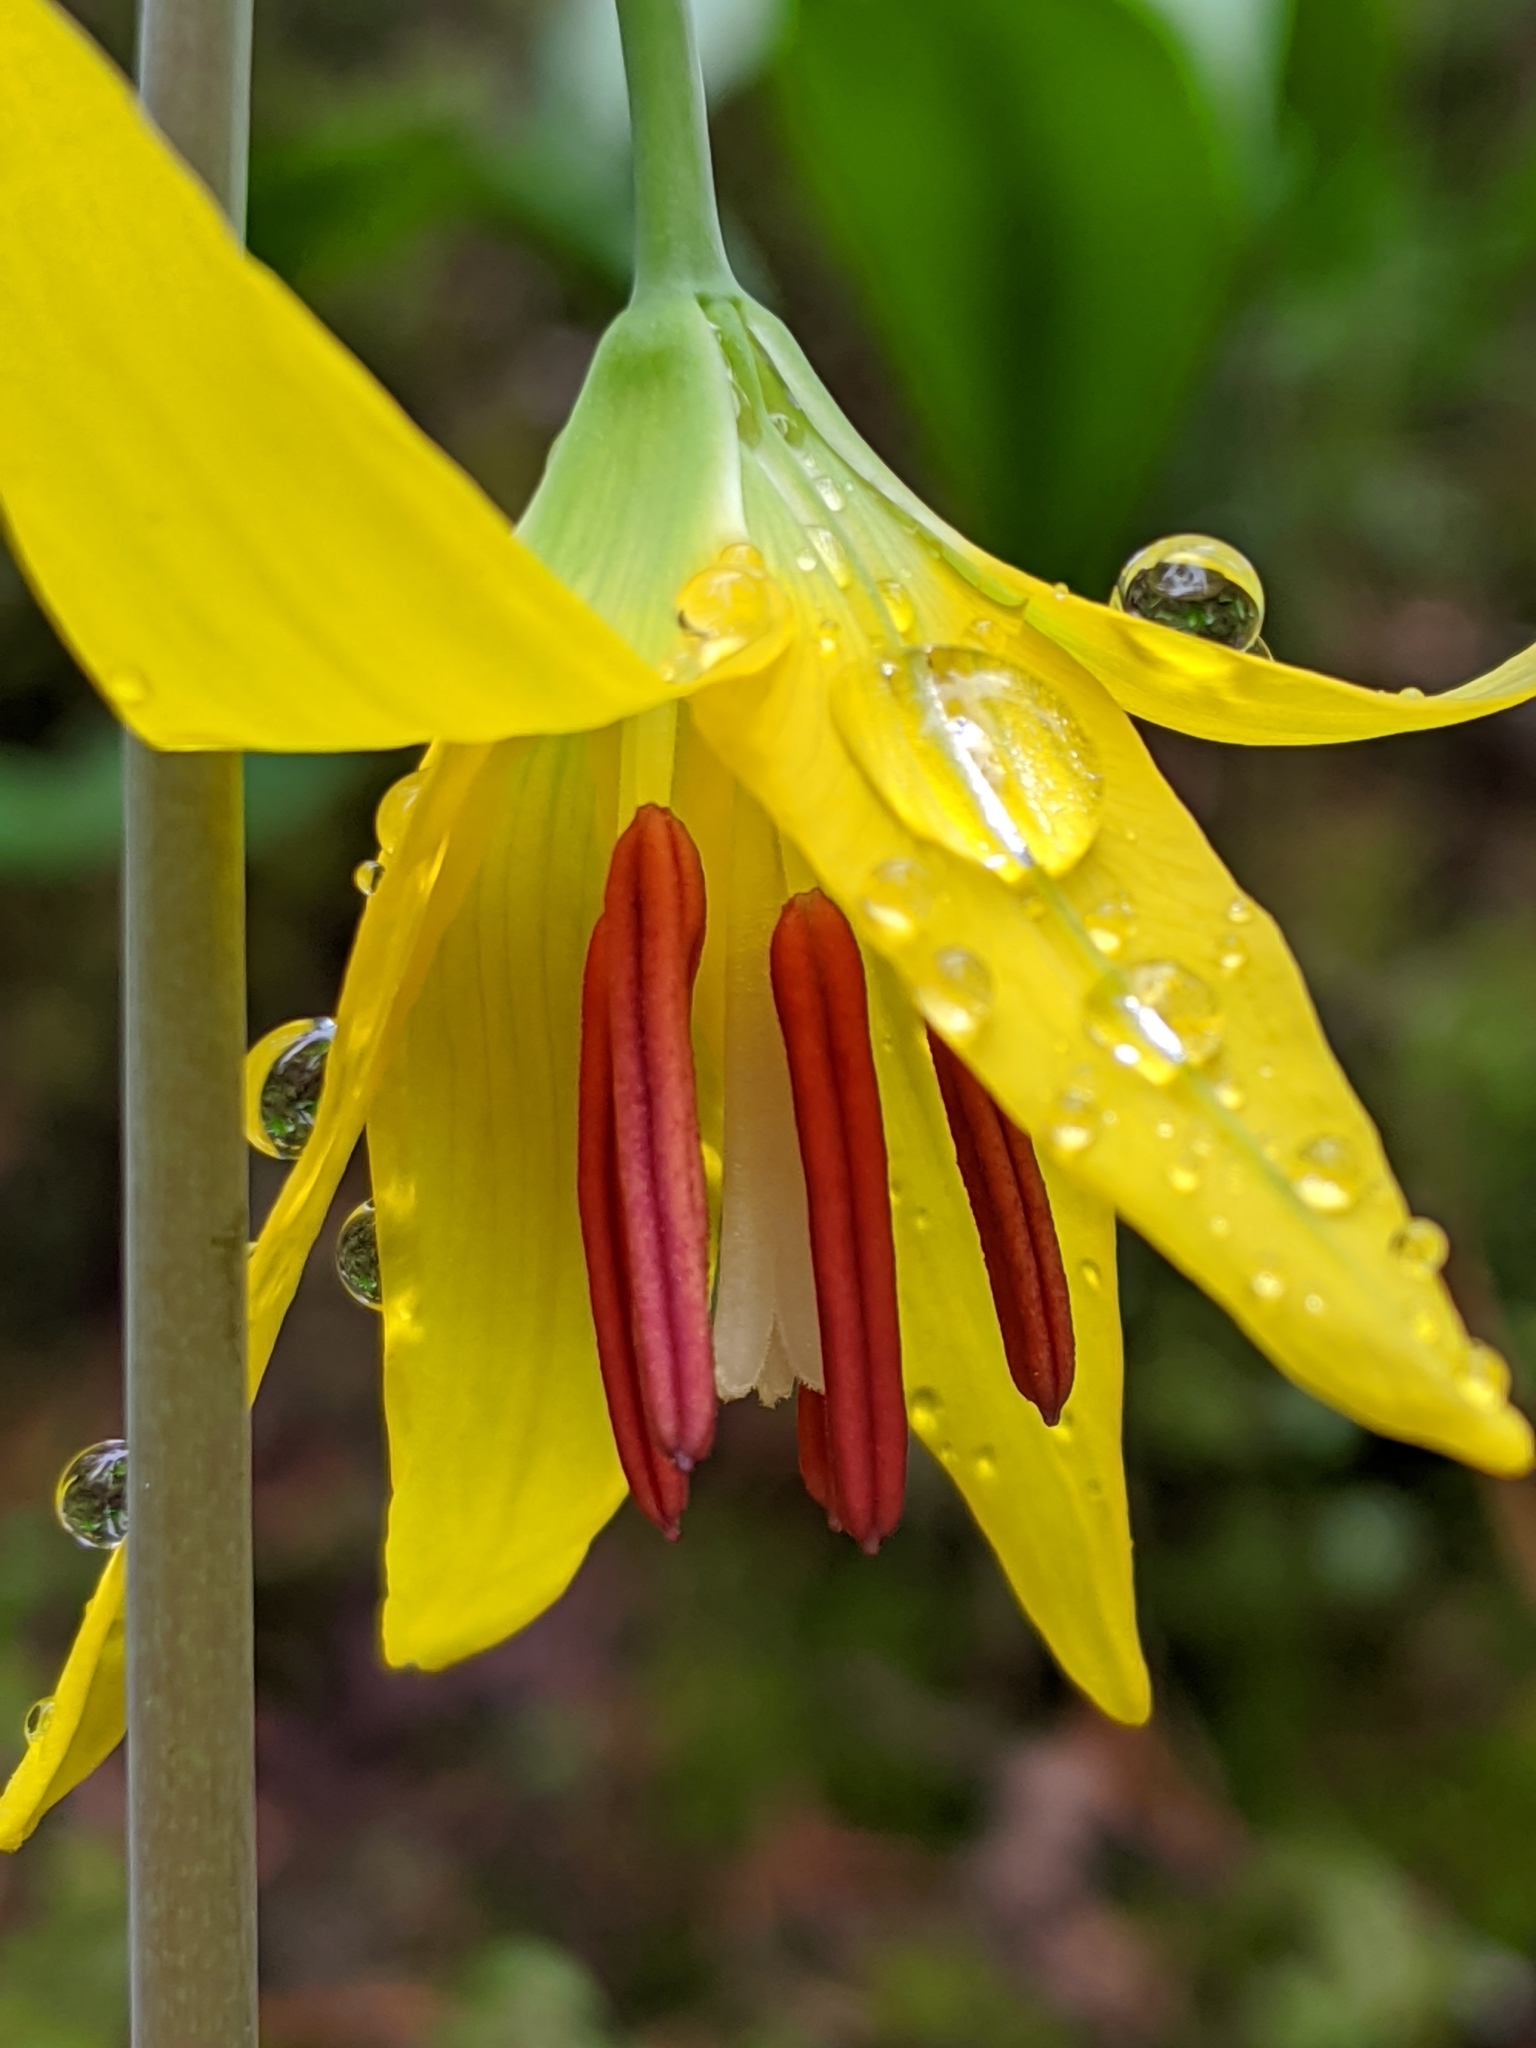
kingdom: Plantae
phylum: Tracheophyta
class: Liliopsida
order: Liliales
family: Liliaceae
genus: Erythronium
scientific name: Erythronium grandiflorum
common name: Avalanche-lily
